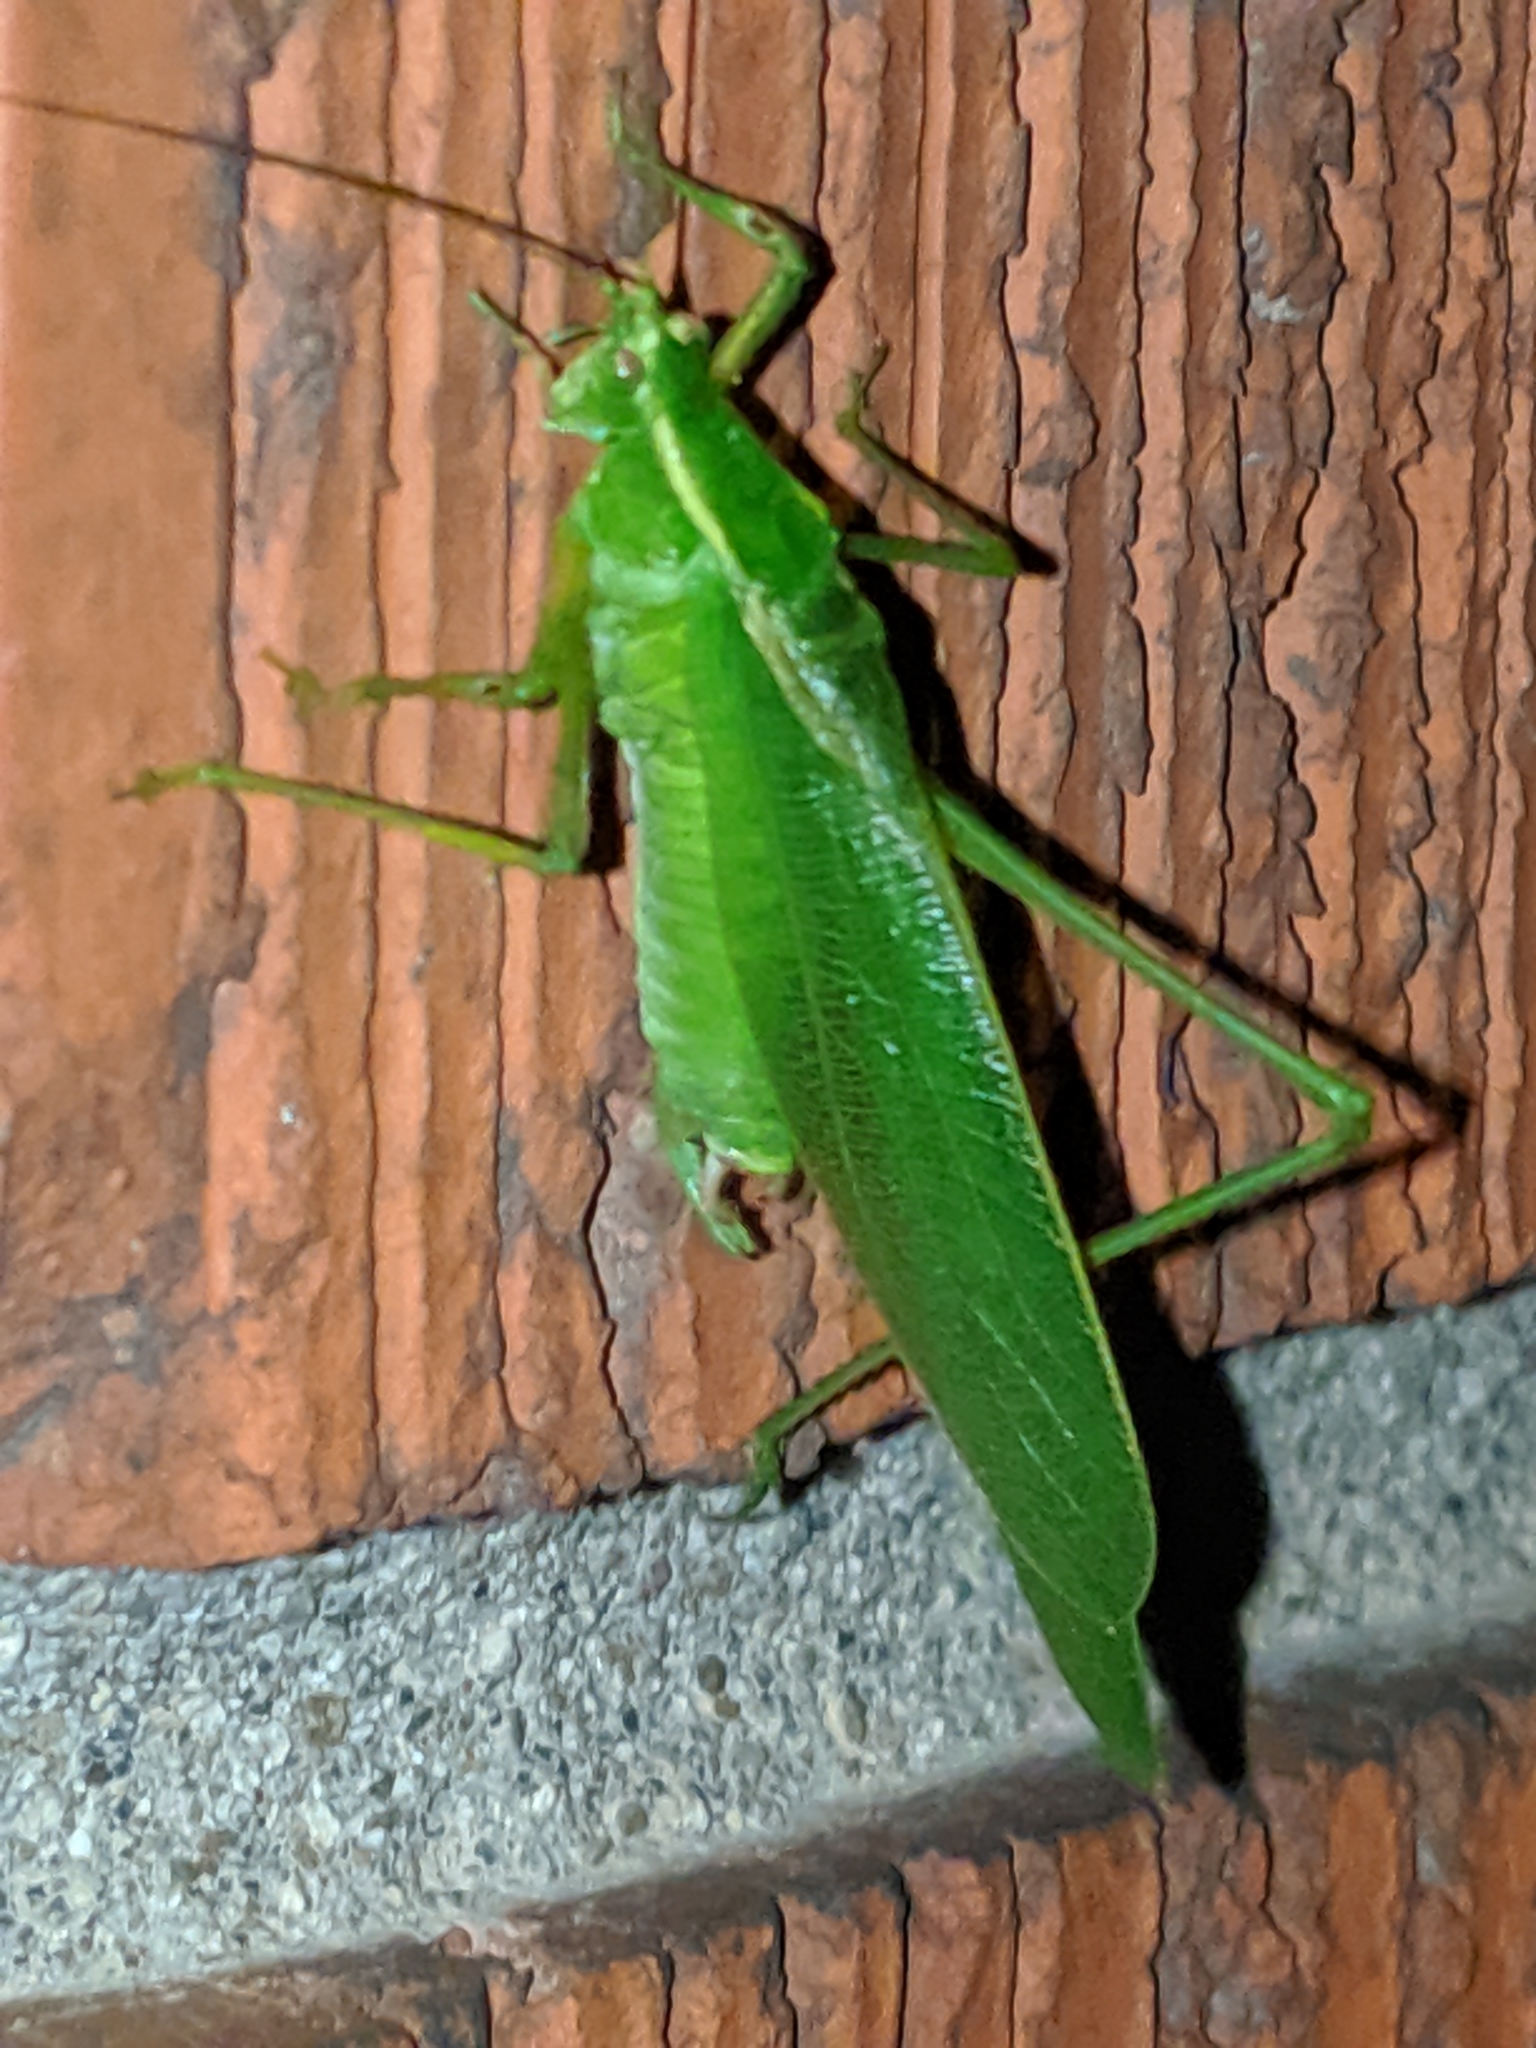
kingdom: Animalia
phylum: Arthropoda
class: Insecta
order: Orthoptera
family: Tettigoniidae
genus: Scudderia
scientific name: Scudderia septentrionalis
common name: Northern bush-katydid
